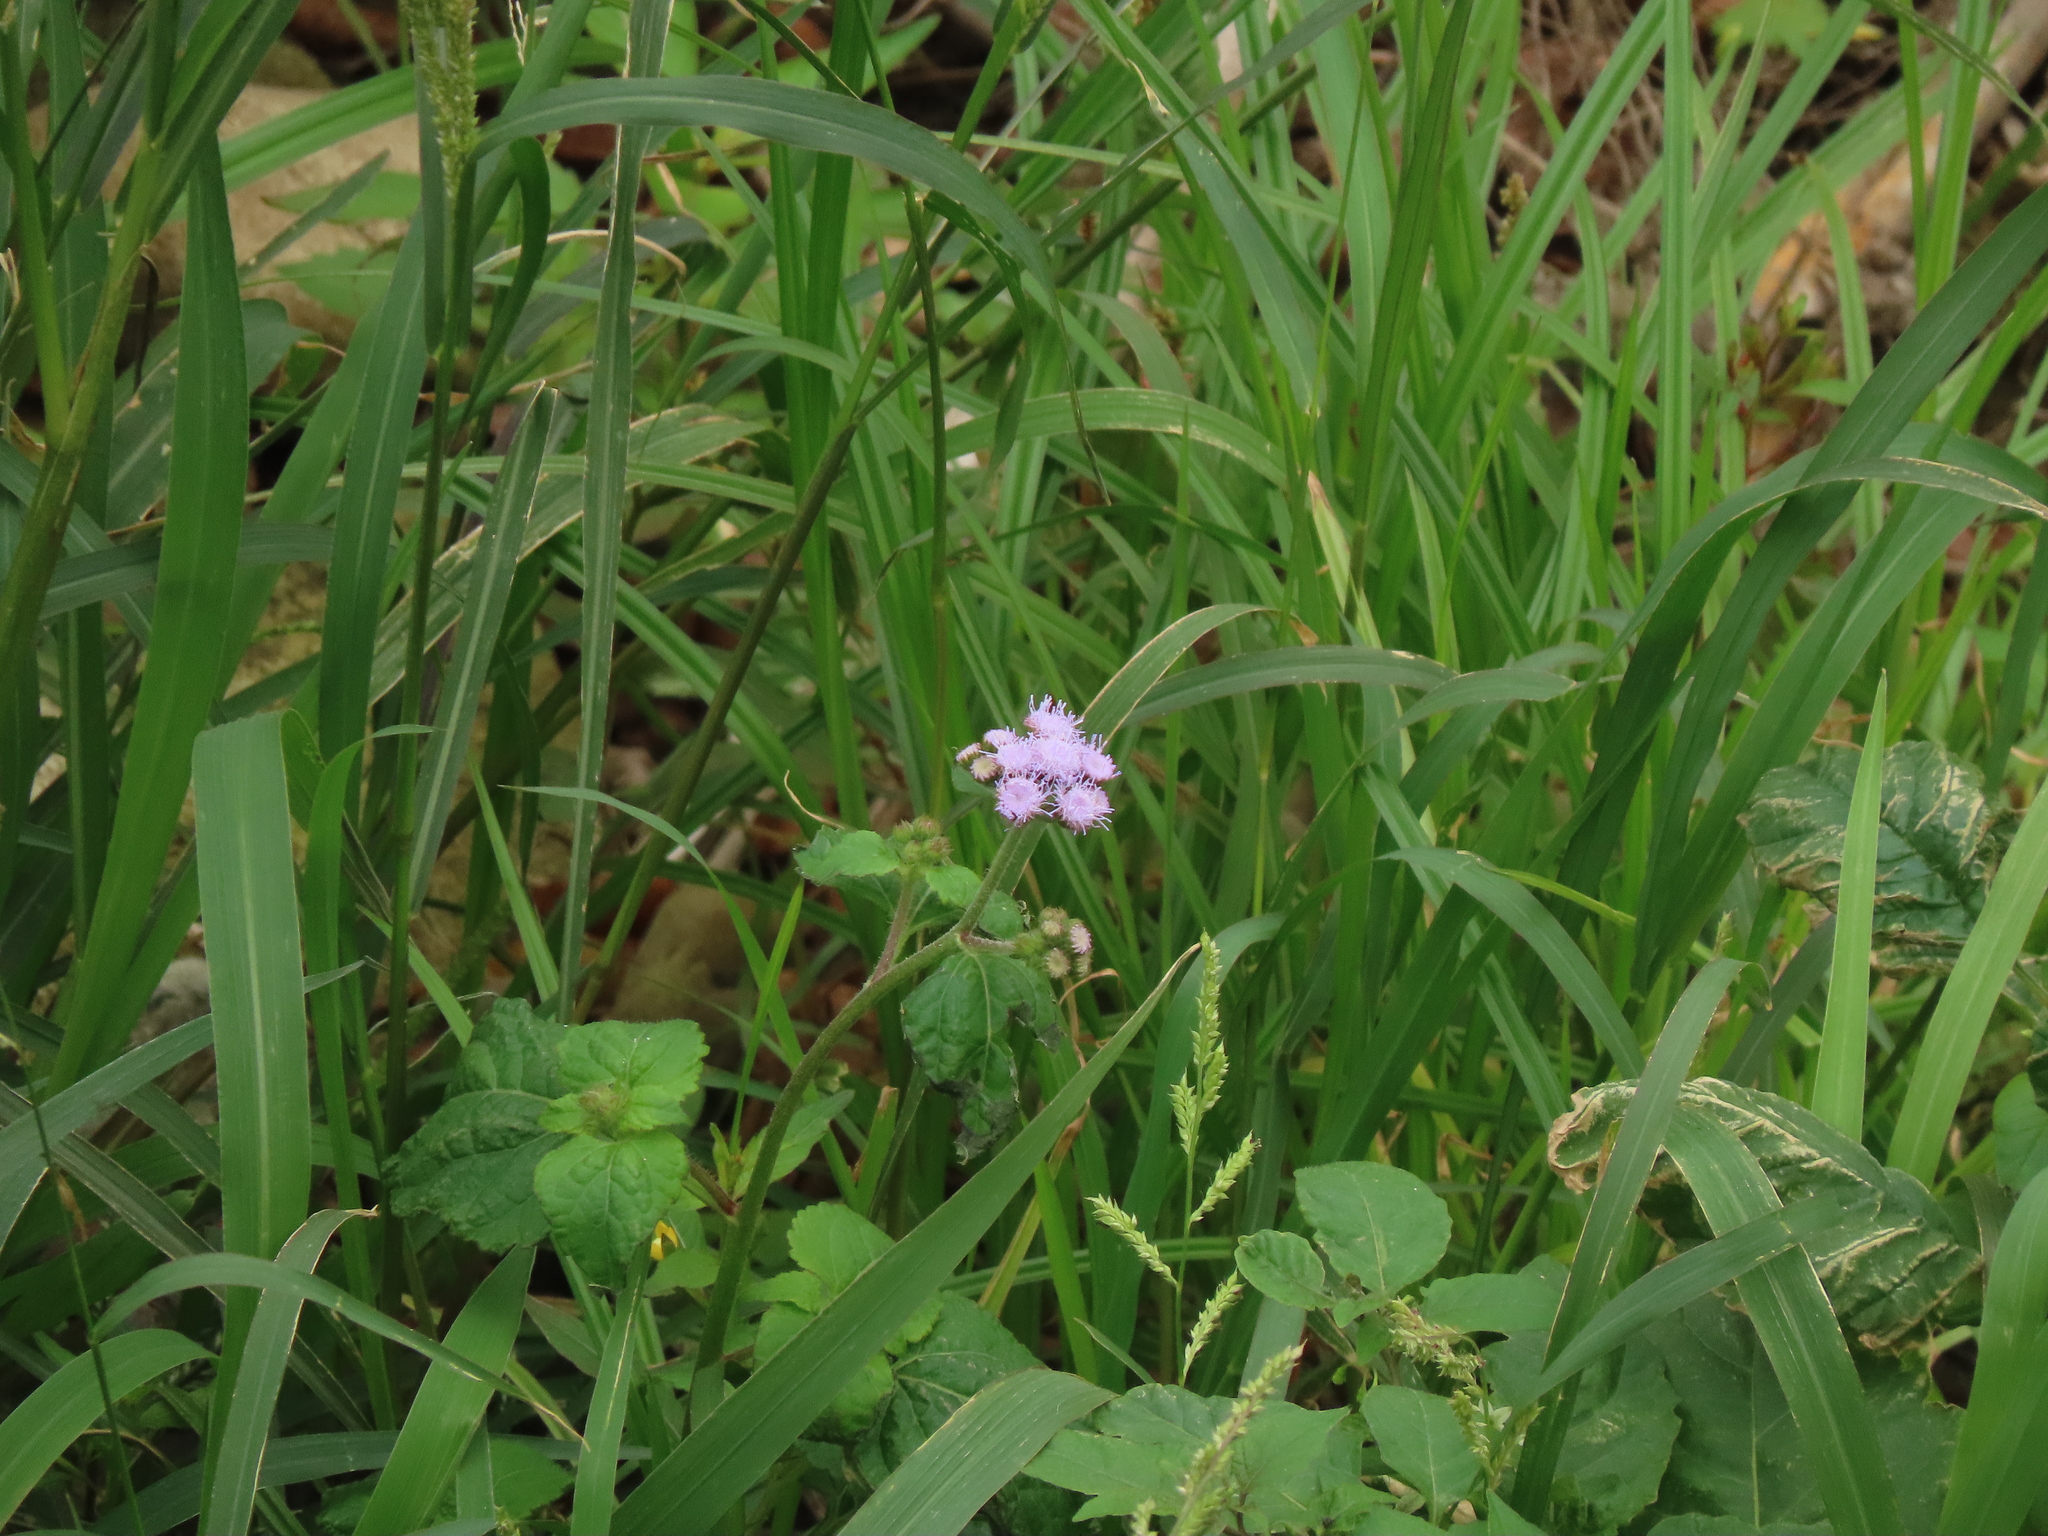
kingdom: Plantae
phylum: Tracheophyta
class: Magnoliopsida
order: Asterales
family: Asteraceae
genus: Ageratum
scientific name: Ageratum houstonianum
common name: Bluemink
